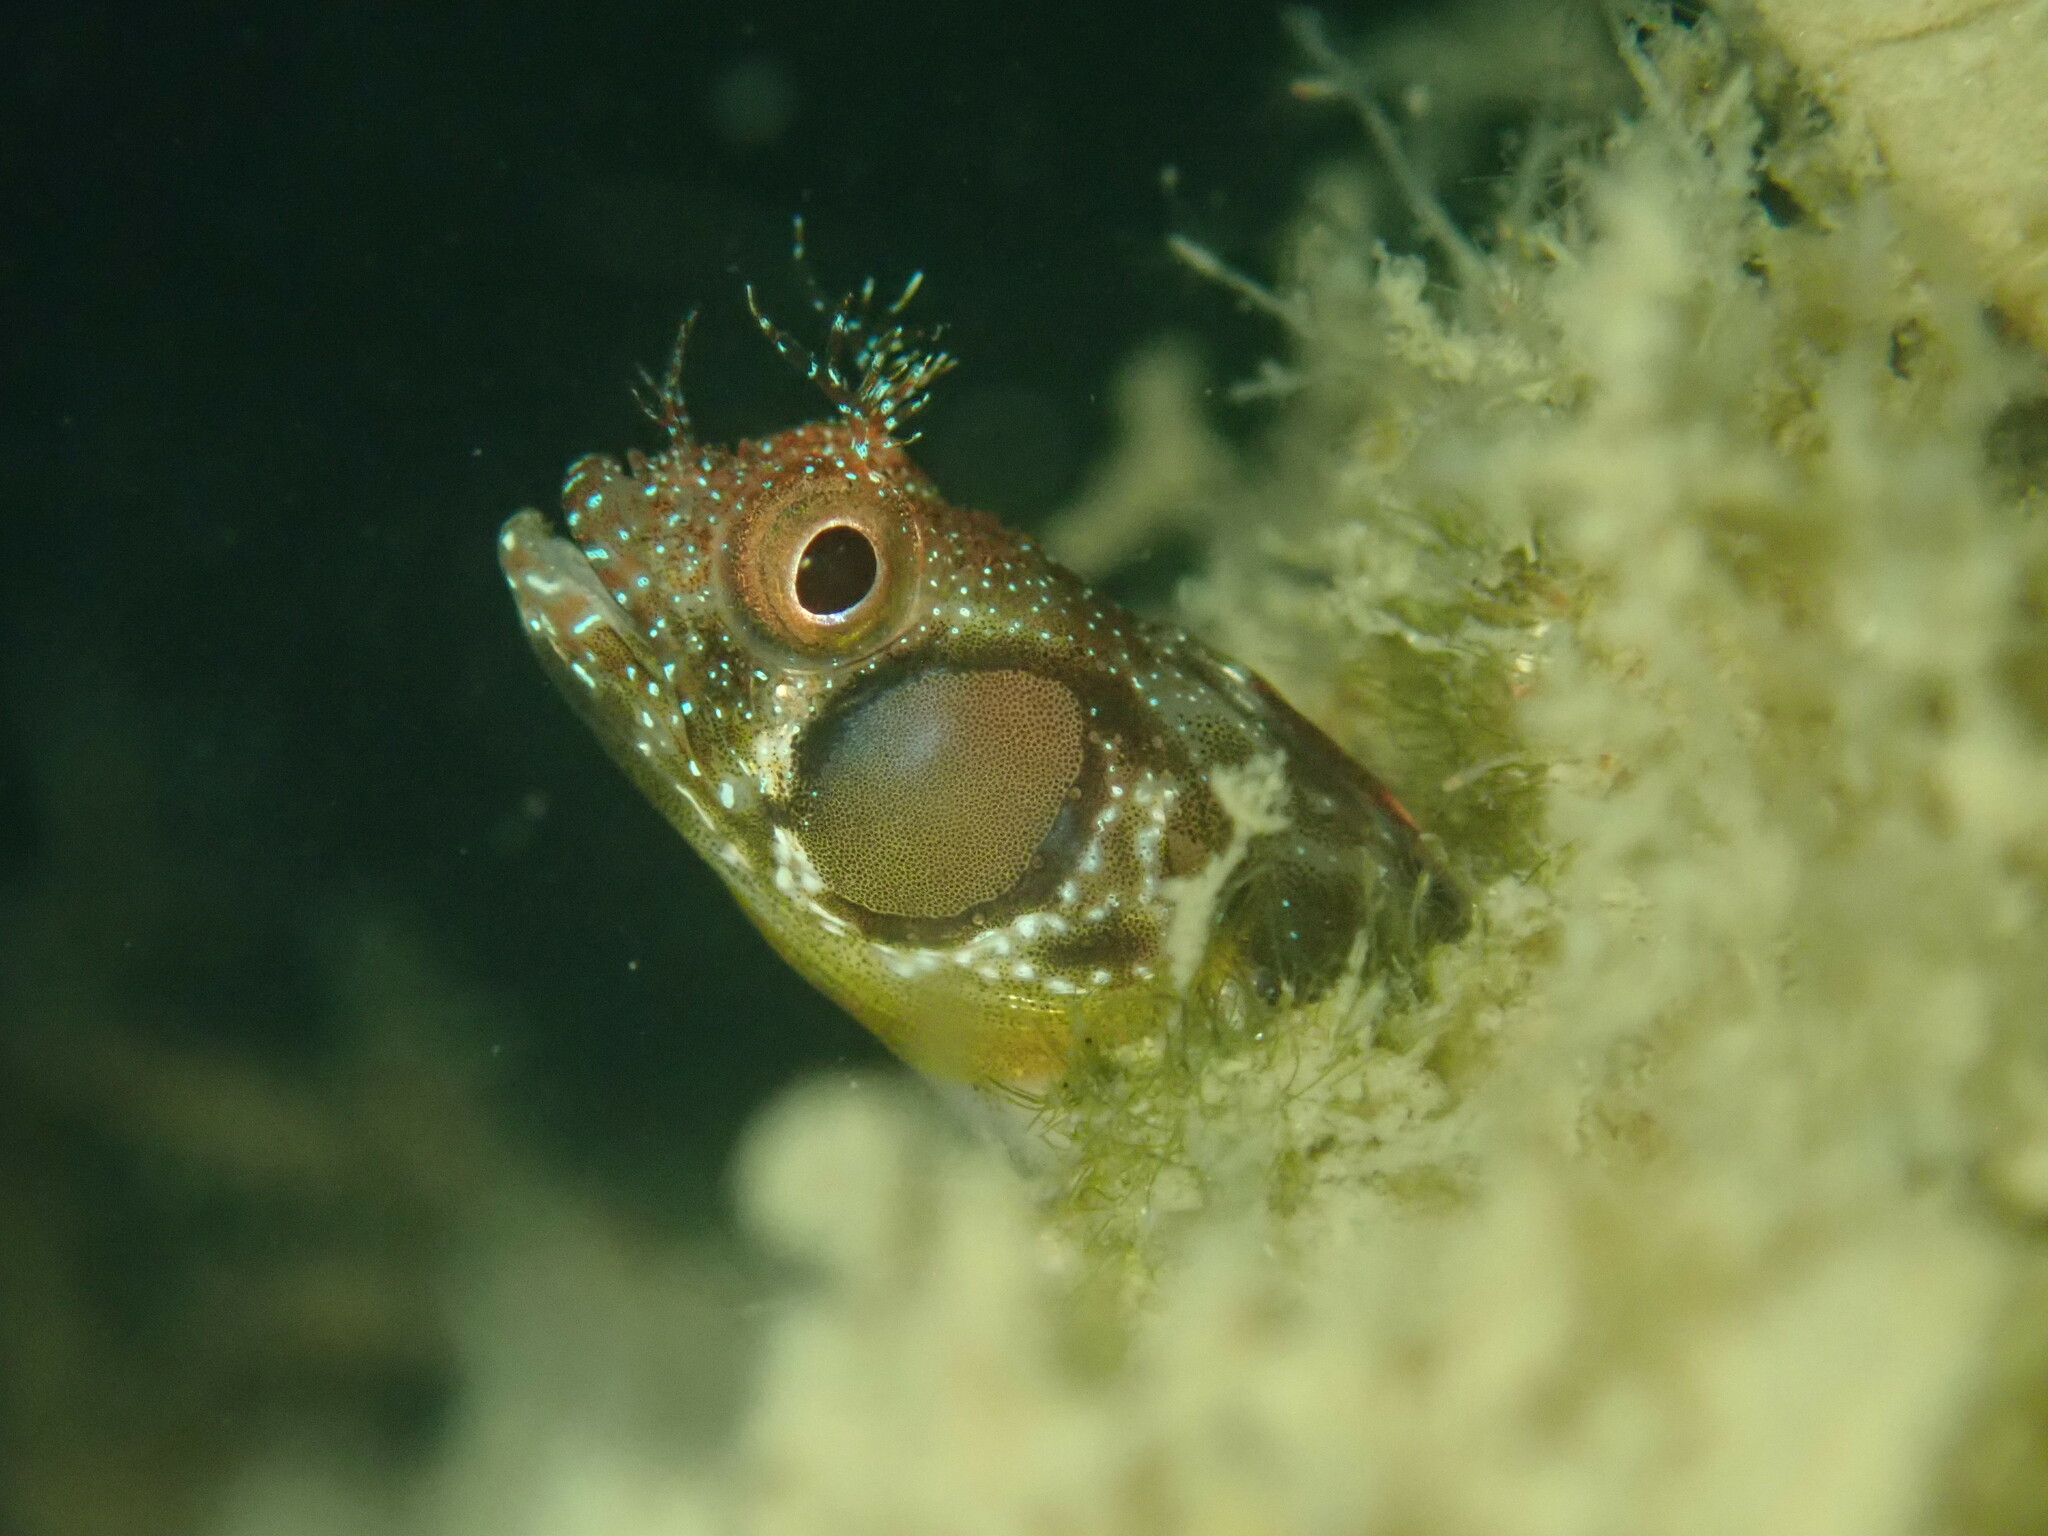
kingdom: Animalia
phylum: Chordata
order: Perciformes
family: Chaenopsidae
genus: Acanthemblemaria
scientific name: Acanthemblemaria crockeri
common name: Browncheek blenny
